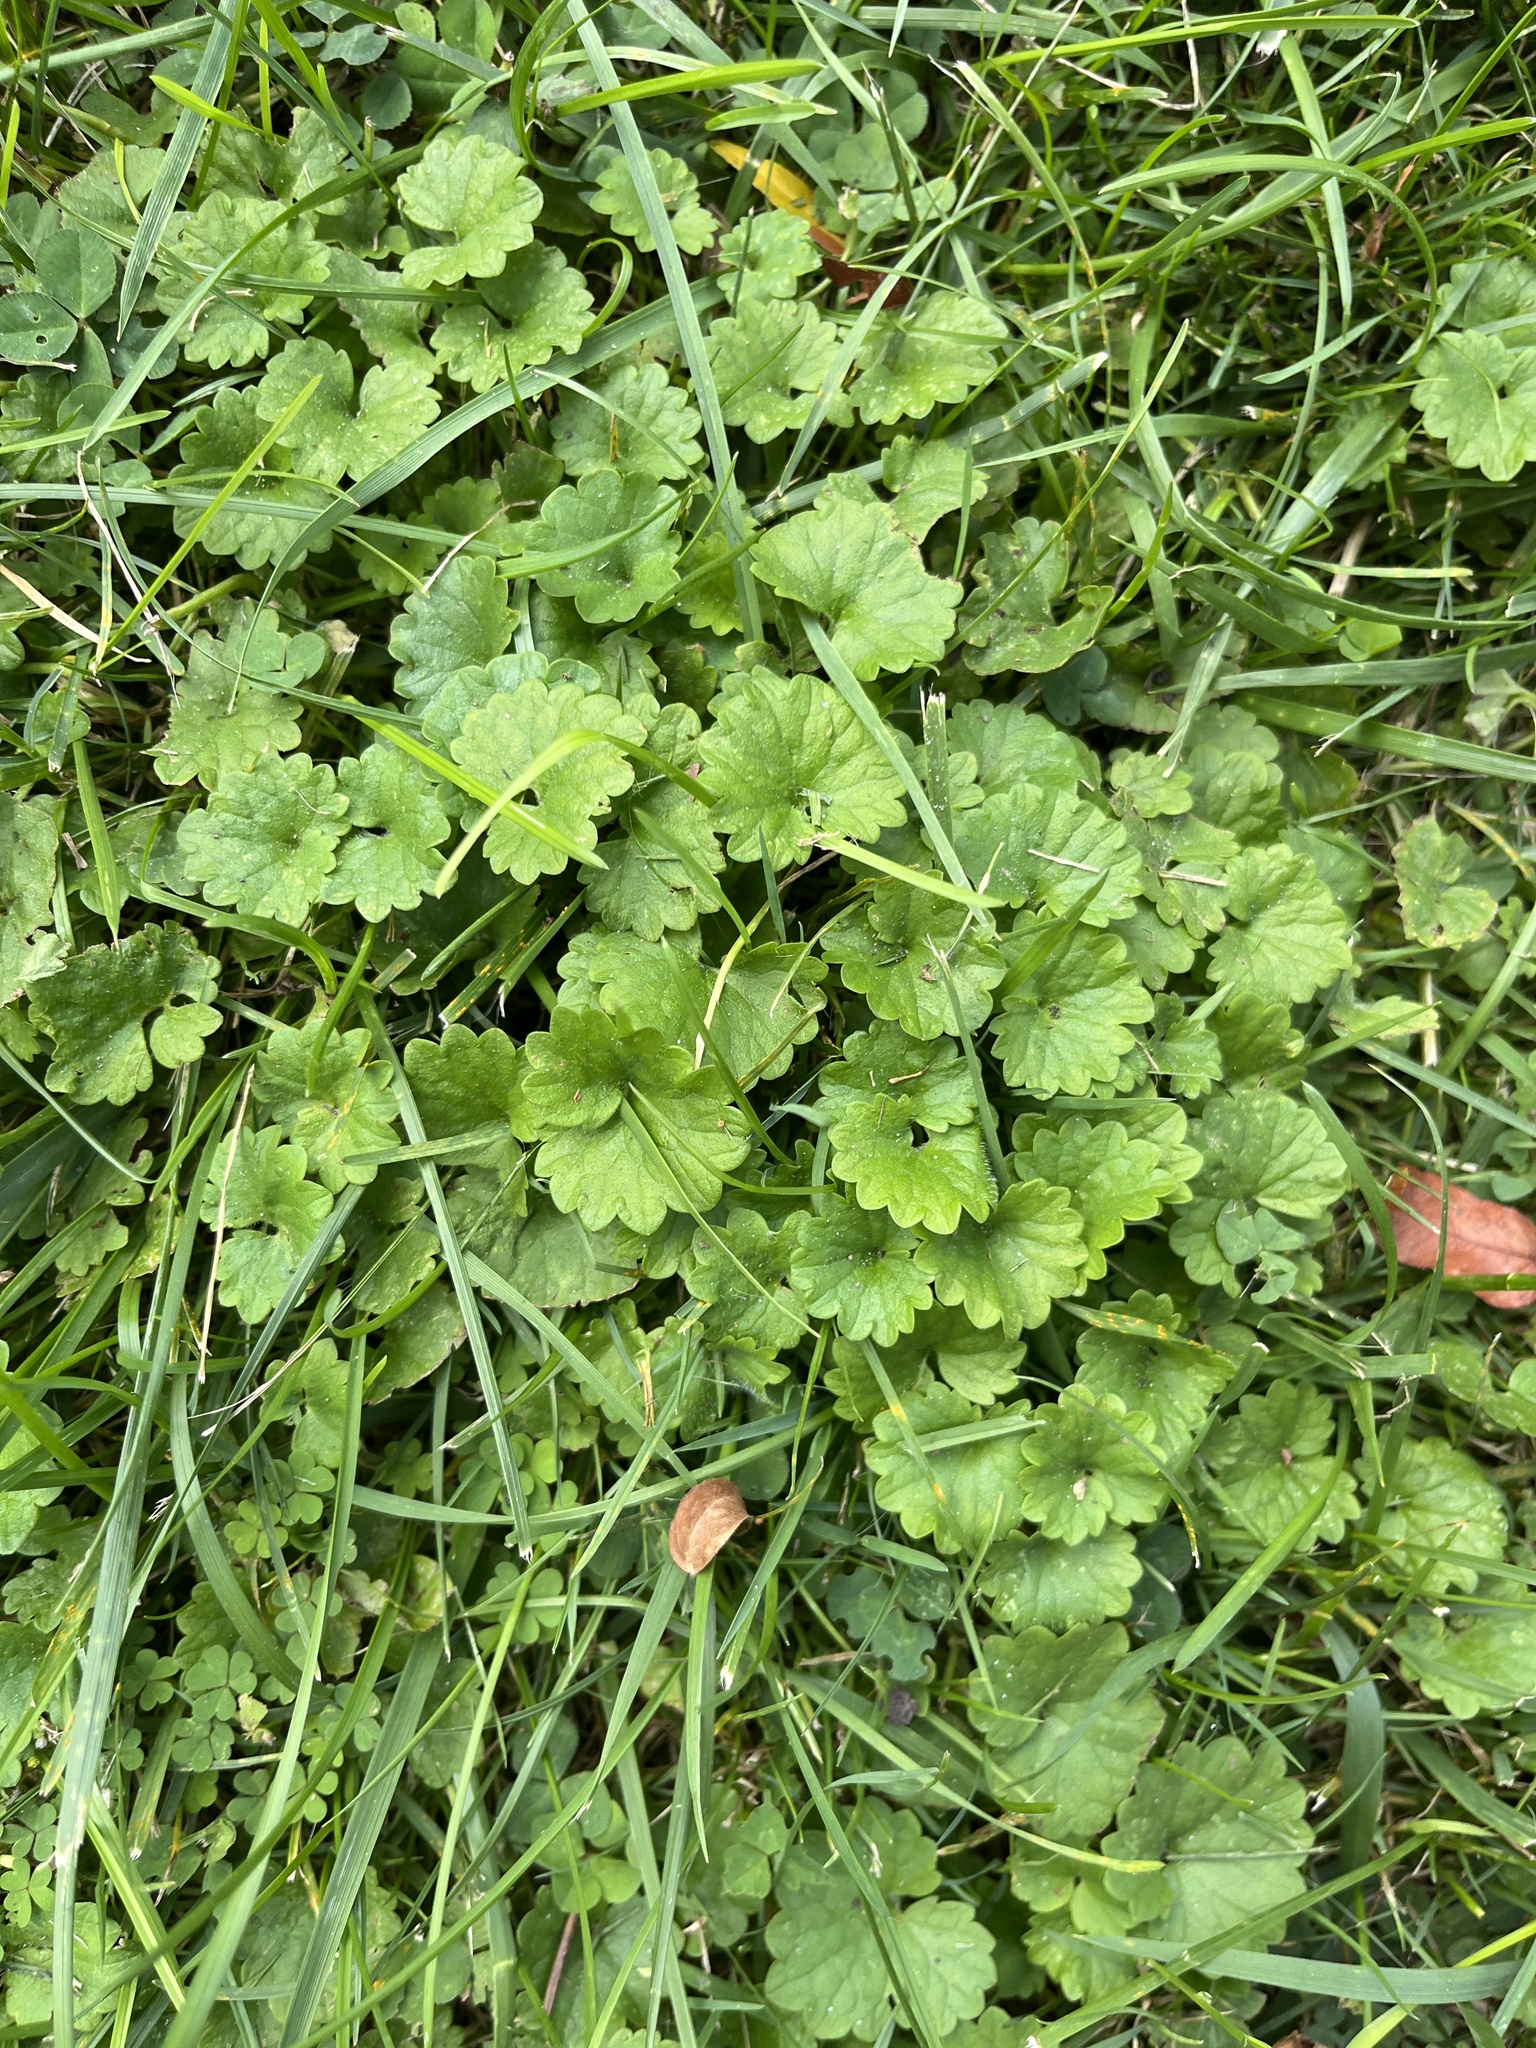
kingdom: Plantae
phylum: Tracheophyta
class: Magnoliopsida
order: Lamiales
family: Lamiaceae
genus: Glechoma
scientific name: Glechoma hederacea
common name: Ground ivy
